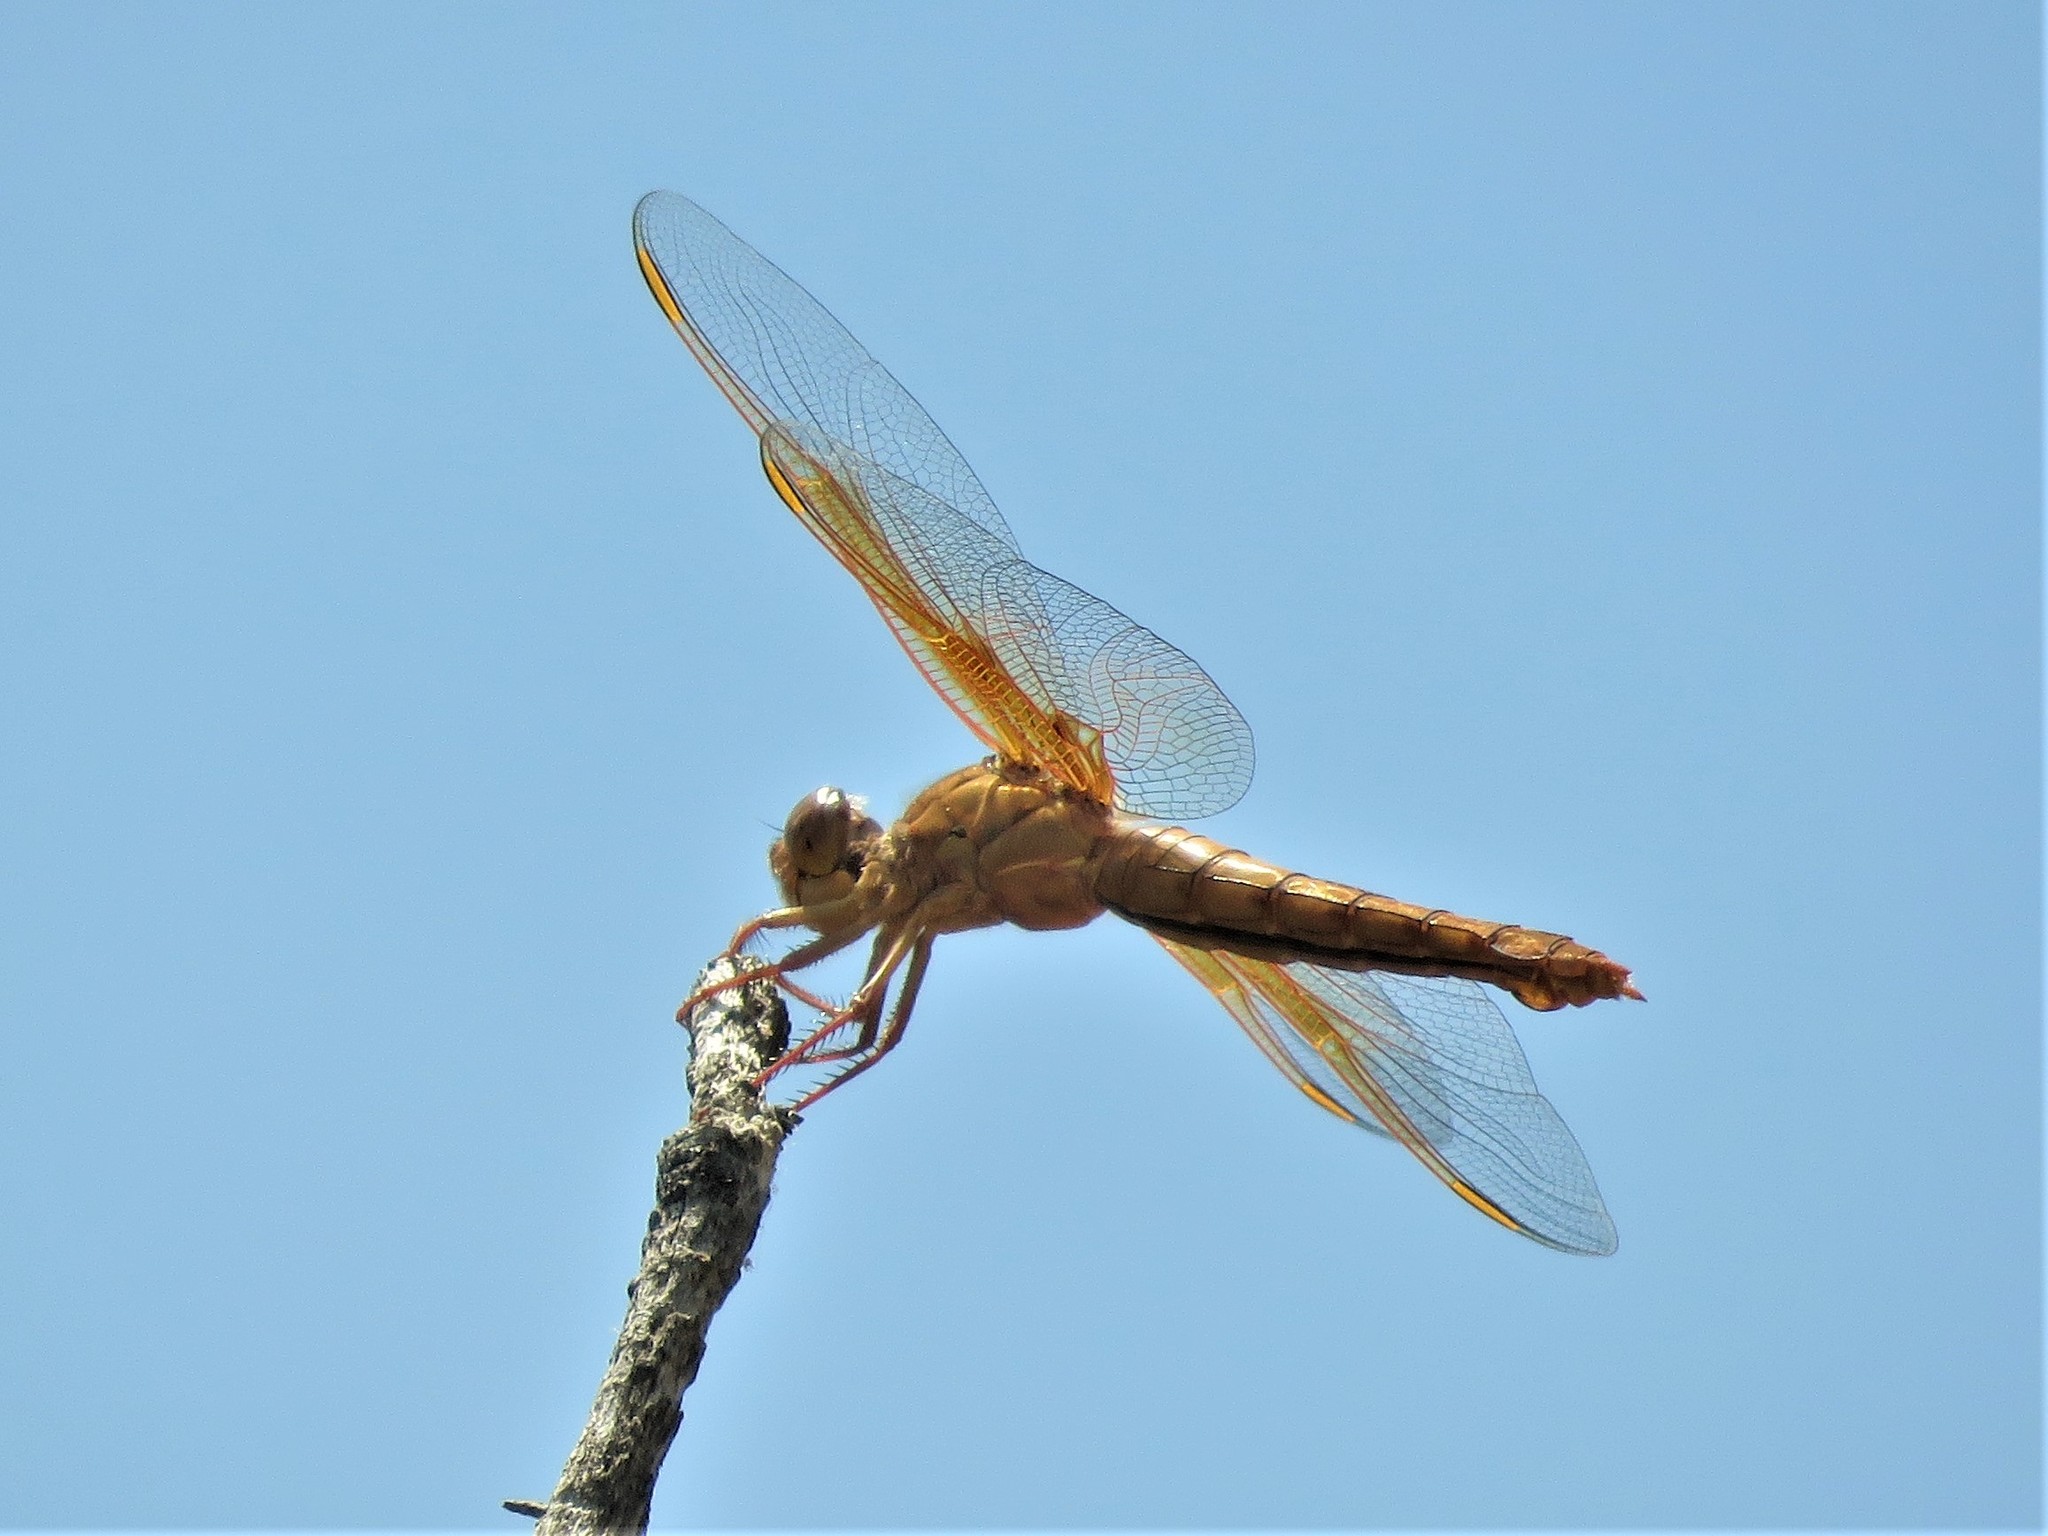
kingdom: Animalia
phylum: Arthropoda
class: Insecta
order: Odonata
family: Libellulidae
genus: Libellula
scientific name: Libellula saturata
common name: Flame skimmer
